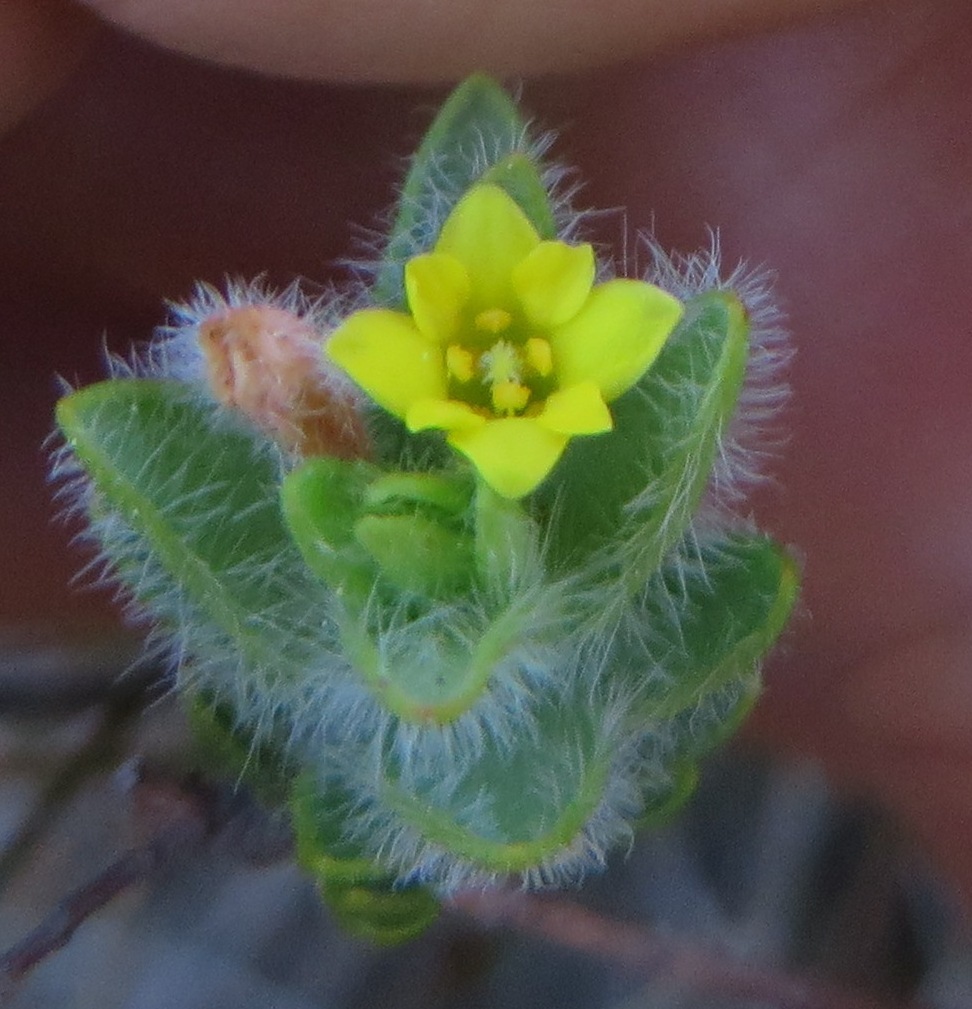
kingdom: Plantae
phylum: Tracheophyta
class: Magnoliopsida
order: Malvales
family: Thymelaeaceae
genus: Gnidia
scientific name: Gnidia humilis
